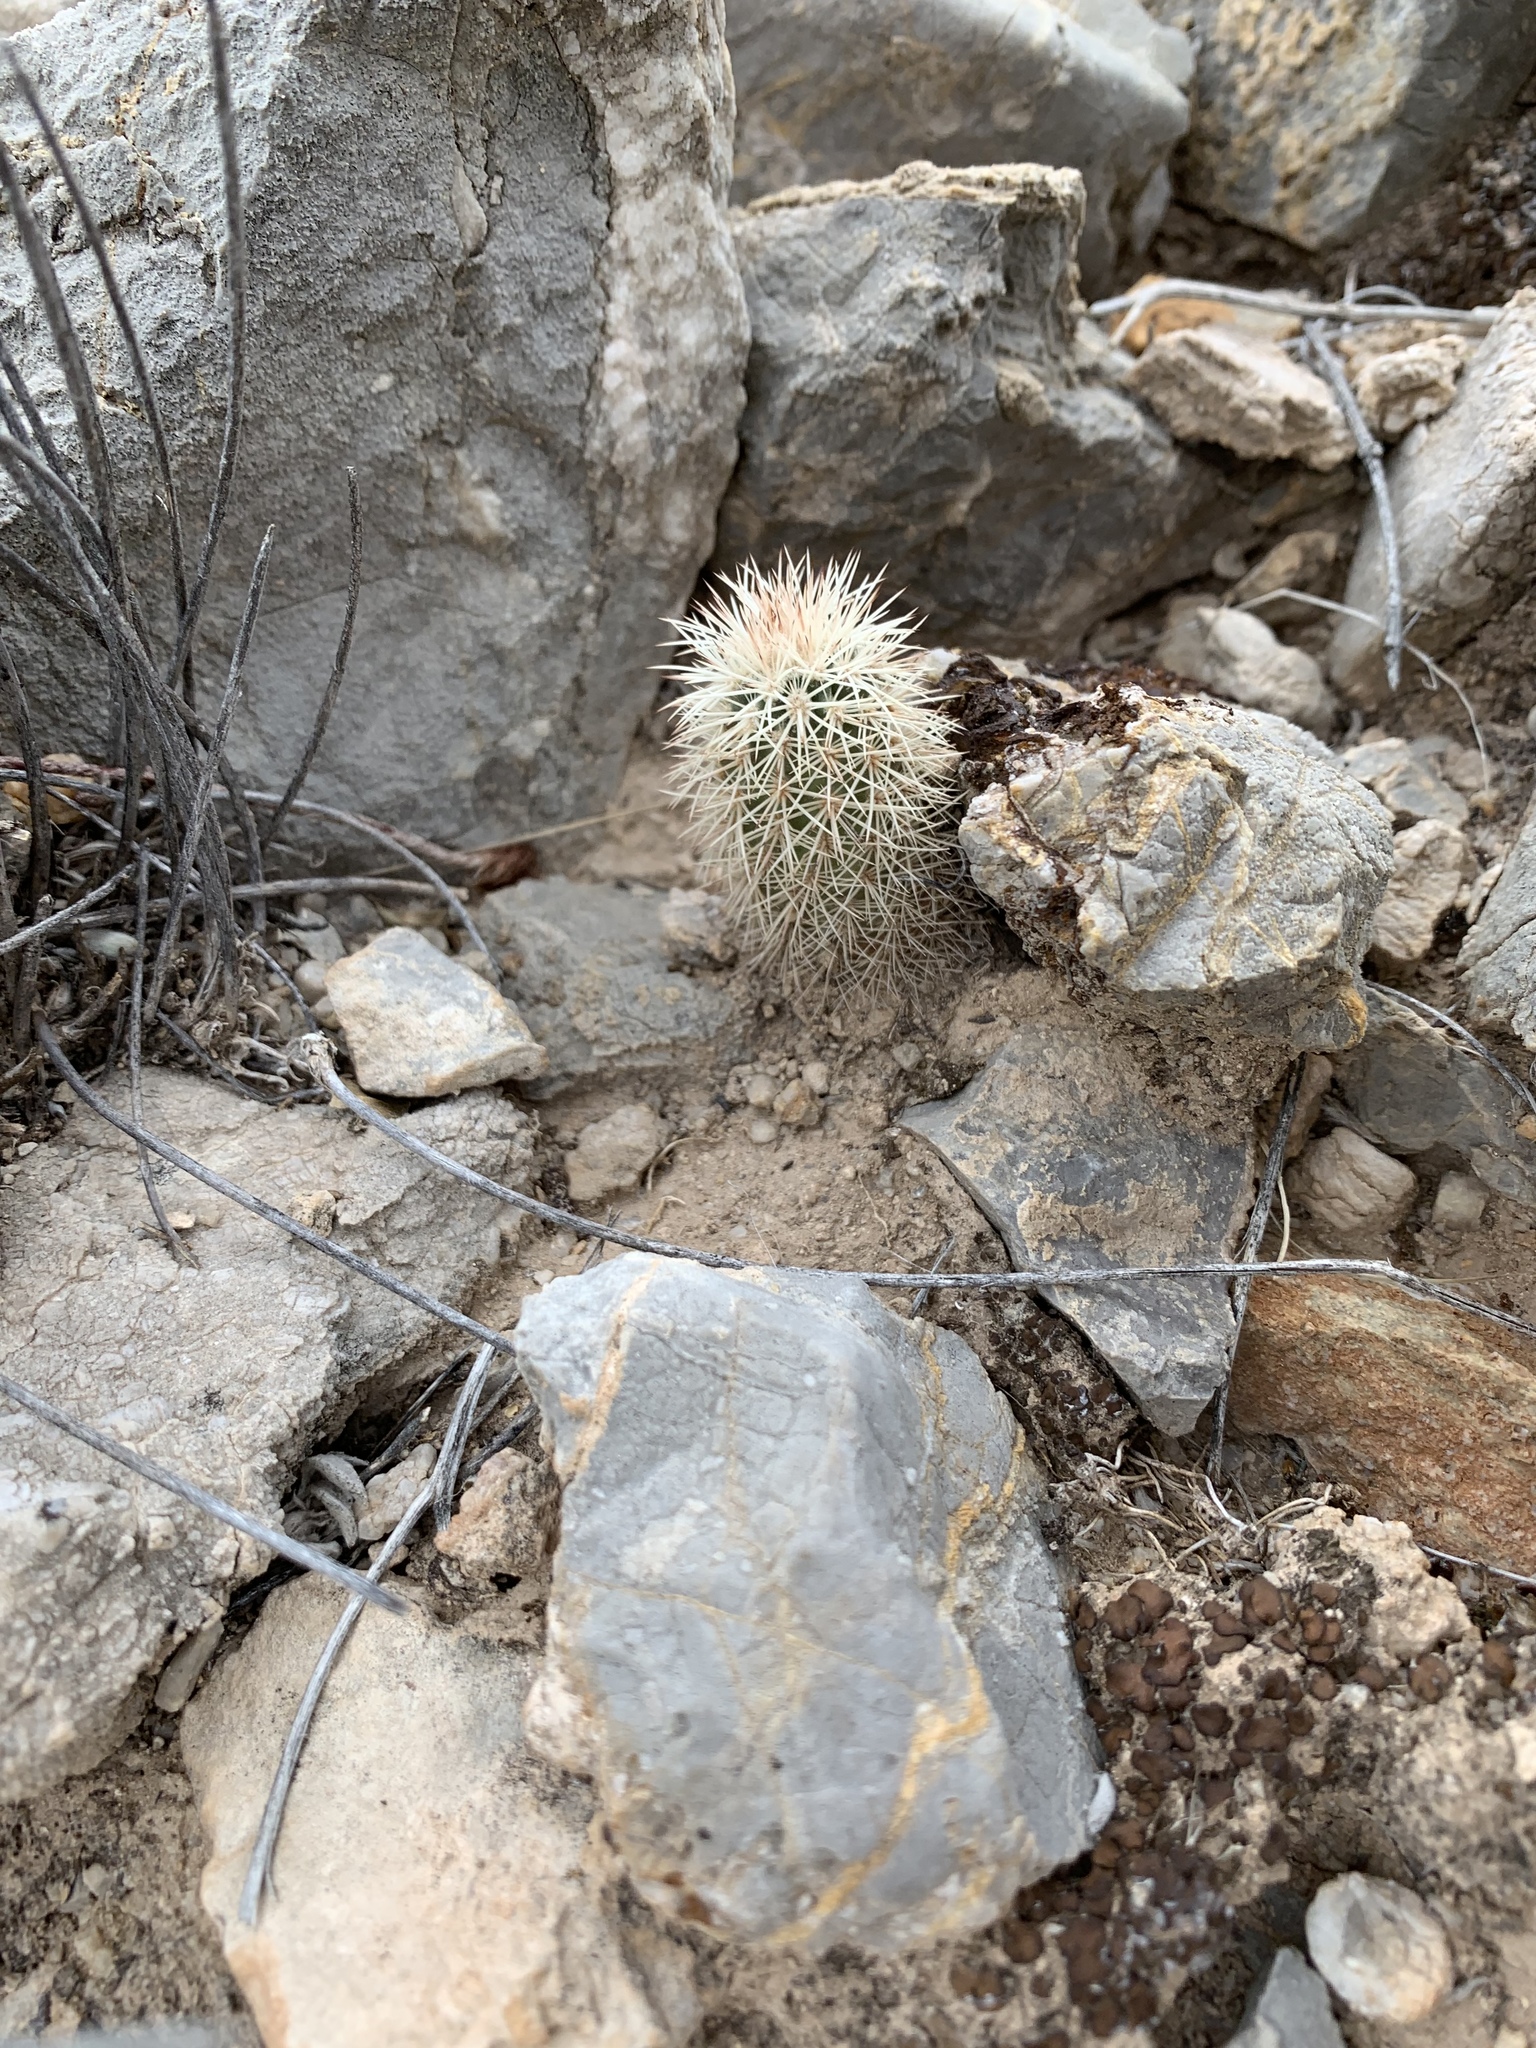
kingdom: Plantae
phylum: Tracheophyta
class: Magnoliopsida
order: Caryophyllales
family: Cactaceae
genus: Echinocereus
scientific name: Echinocereus dasyacanthus
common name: Spiny hedgehog cactus
